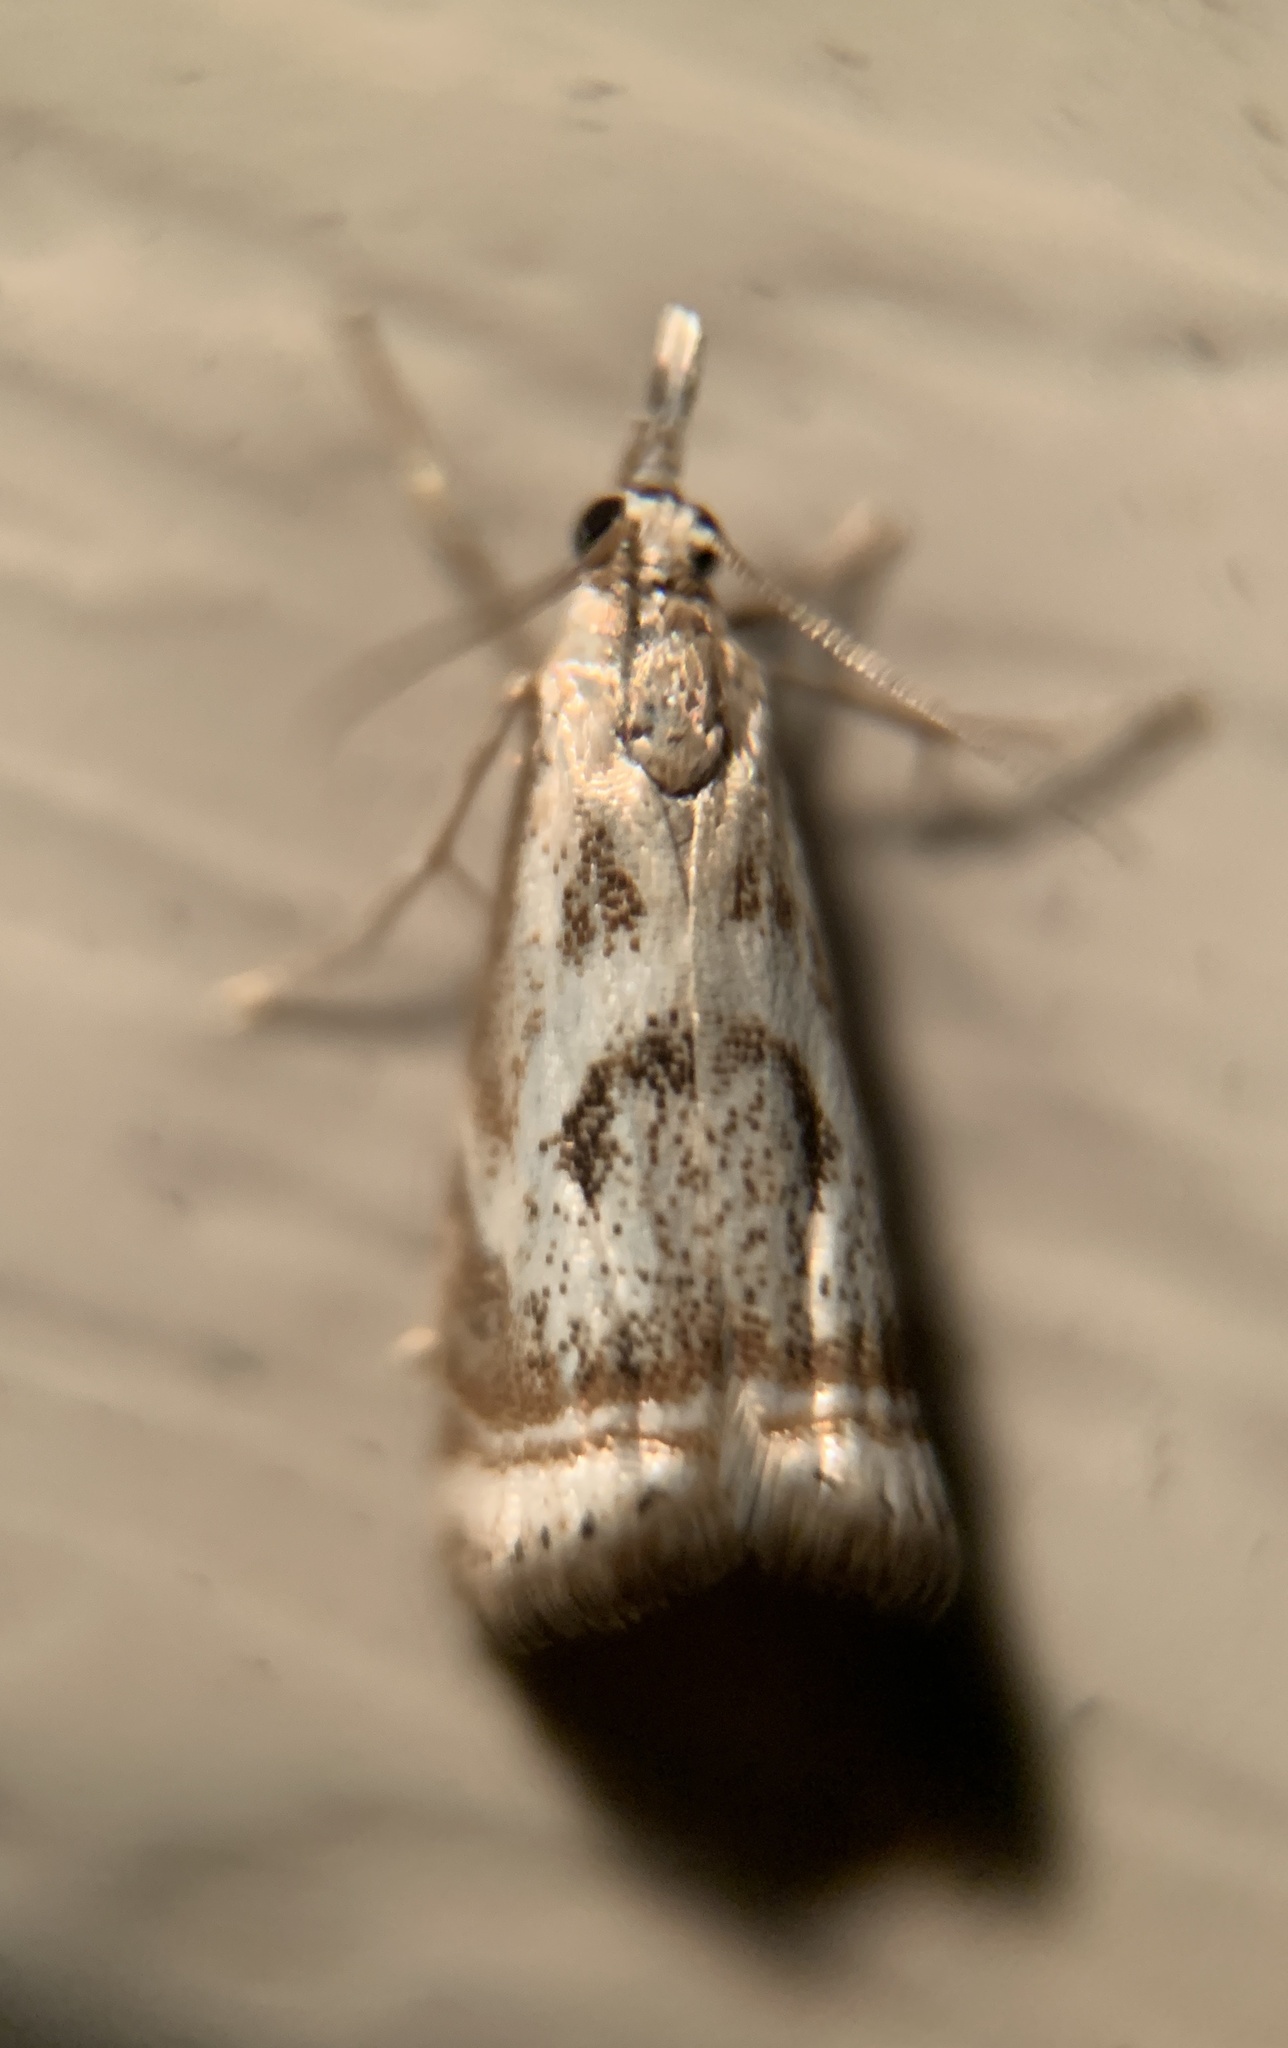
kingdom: Animalia
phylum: Arthropoda
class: Insecta
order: Lepidoptera
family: Crambidae
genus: Microcrambus
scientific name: Microcrambus elegans
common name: Elegant grass-veneer
